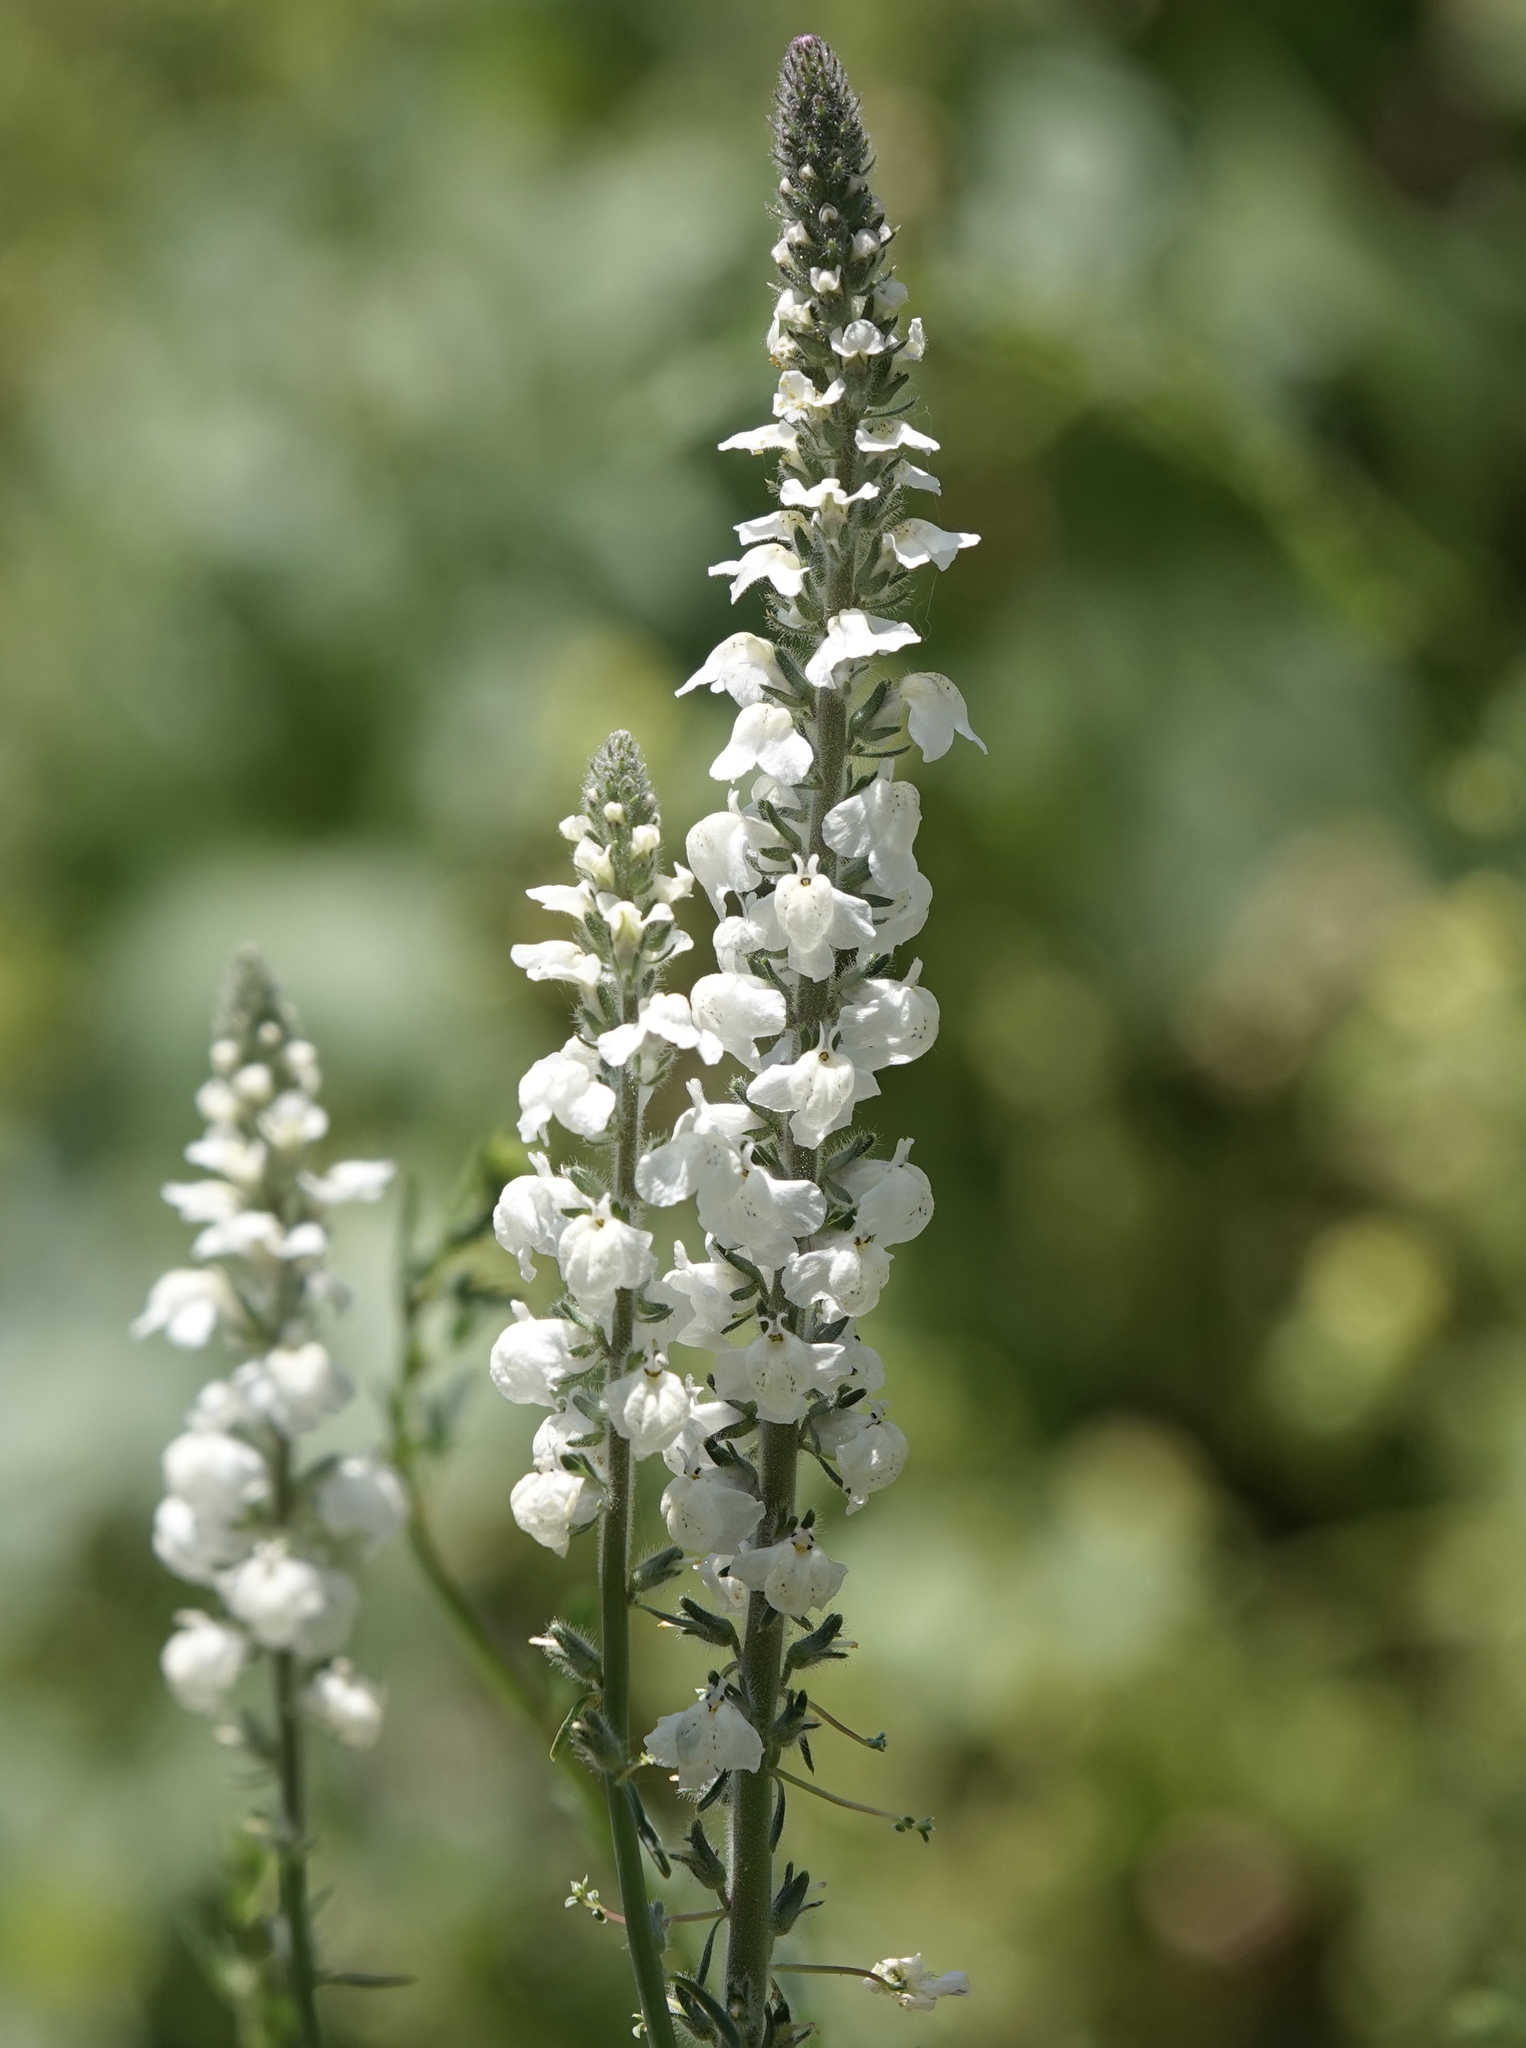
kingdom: Plantae
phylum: Tracheophyta
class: Magnoliopsida
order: Lamiales
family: Plantaginaceae
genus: Sairocarpus
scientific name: Sairocarpus coulterianus
